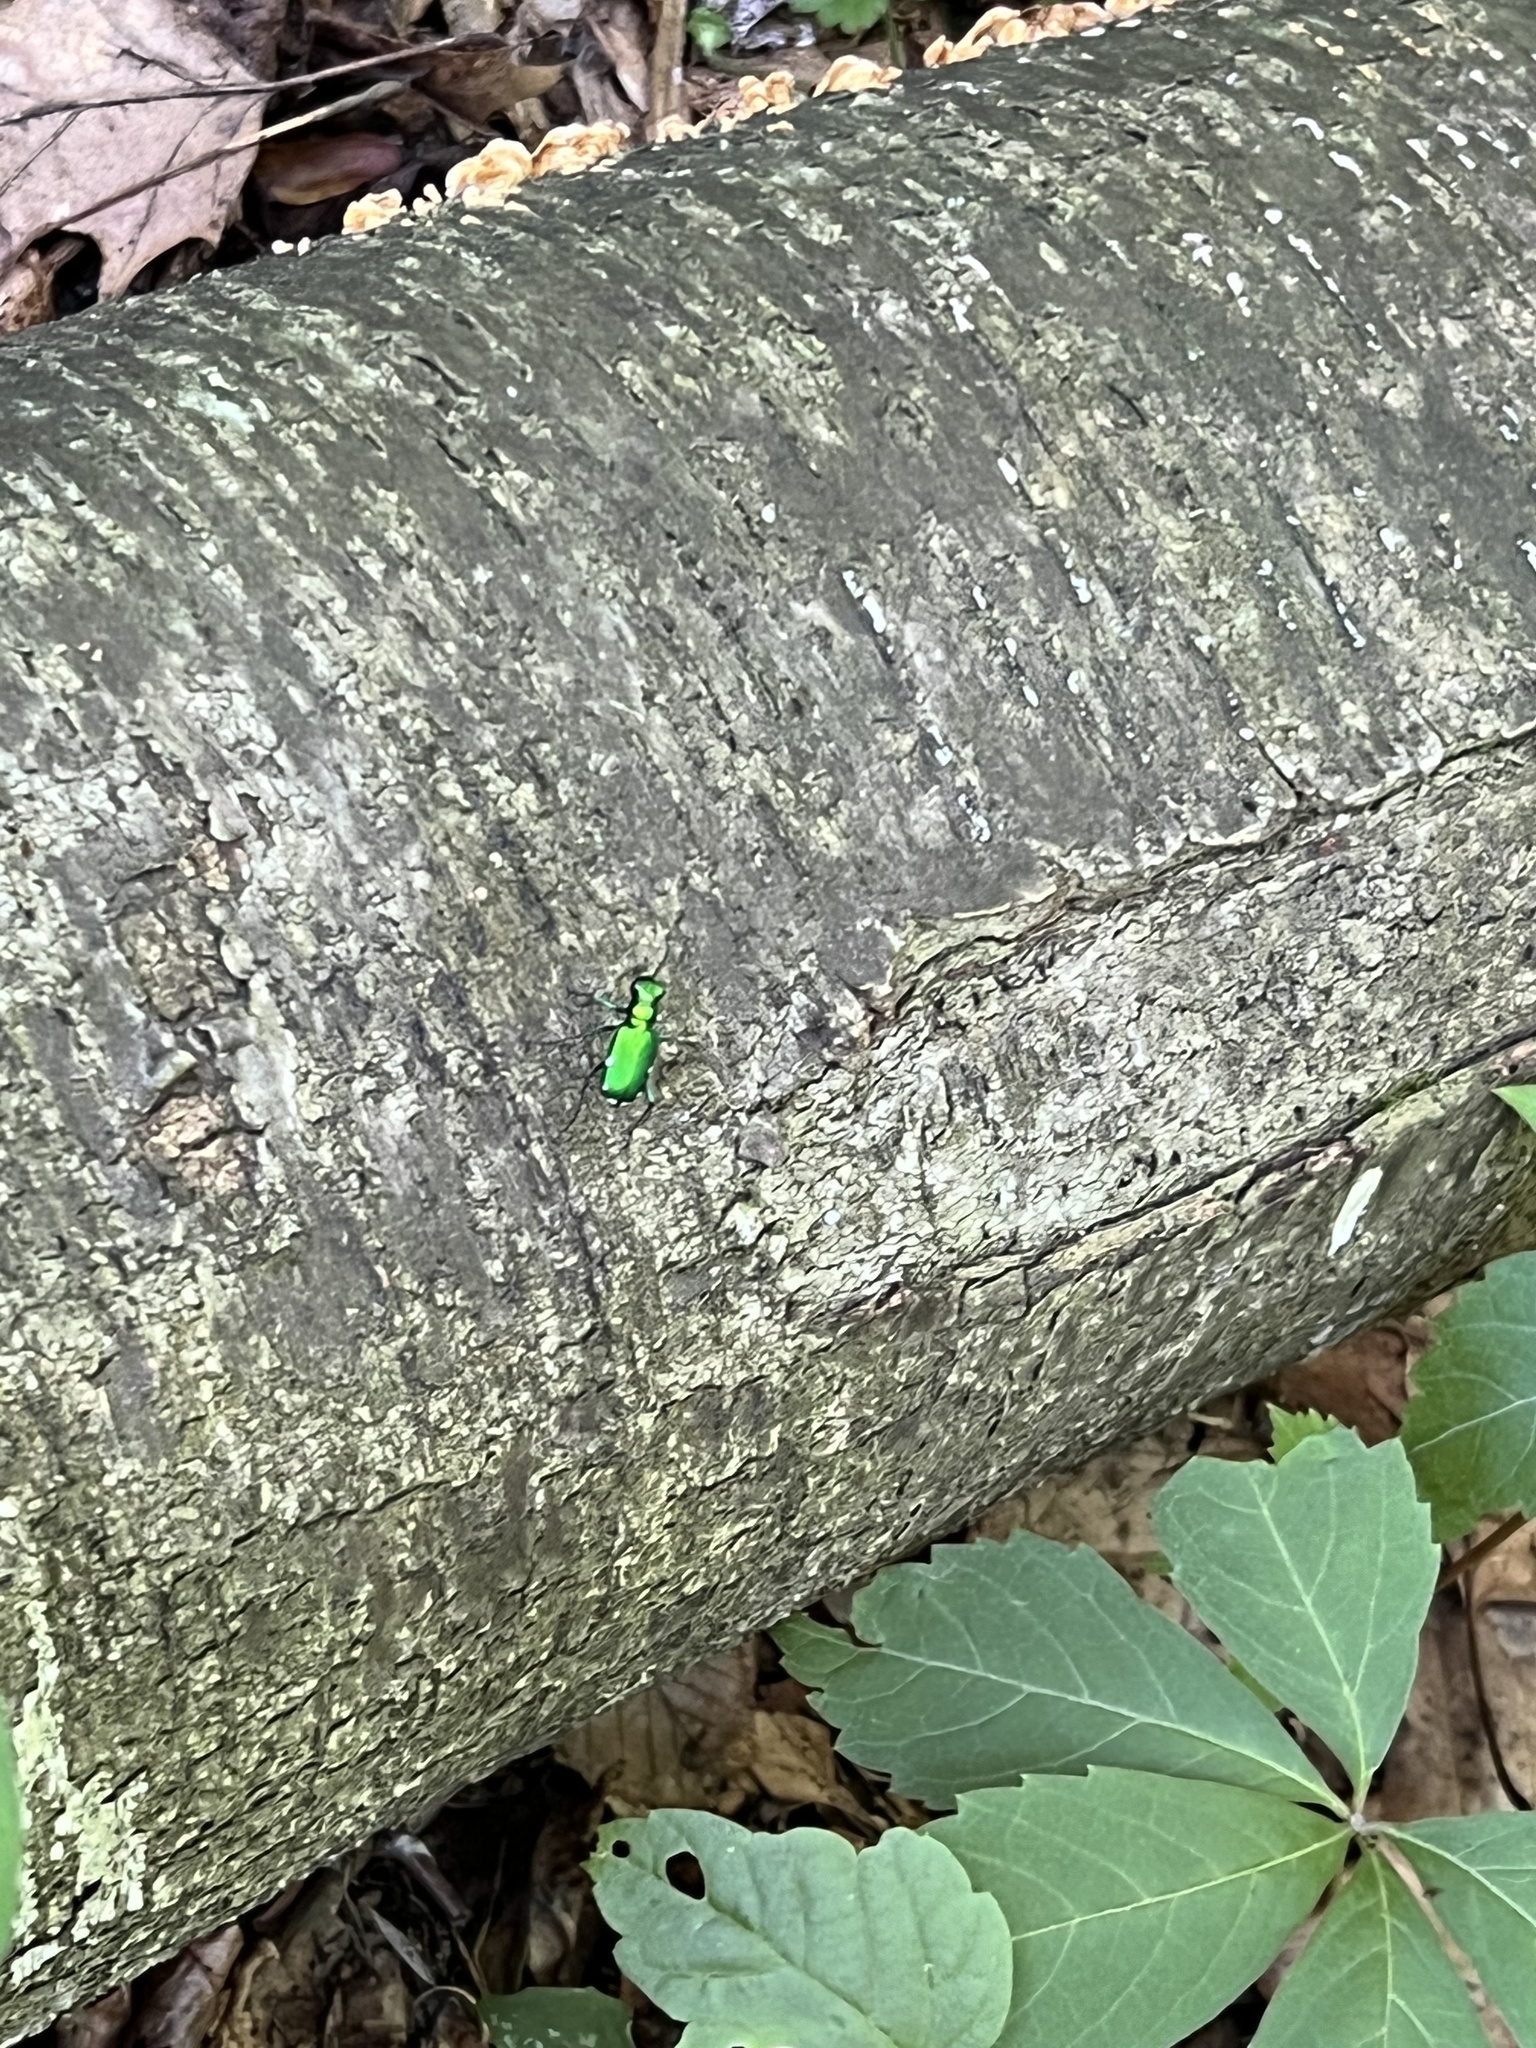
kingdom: Animalia
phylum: Arthropoda
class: Insecta
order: Coleoptera
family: Carabidae
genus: Cicindela
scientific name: Cicindela sexguttata
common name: Six-spotted tiger beetle
